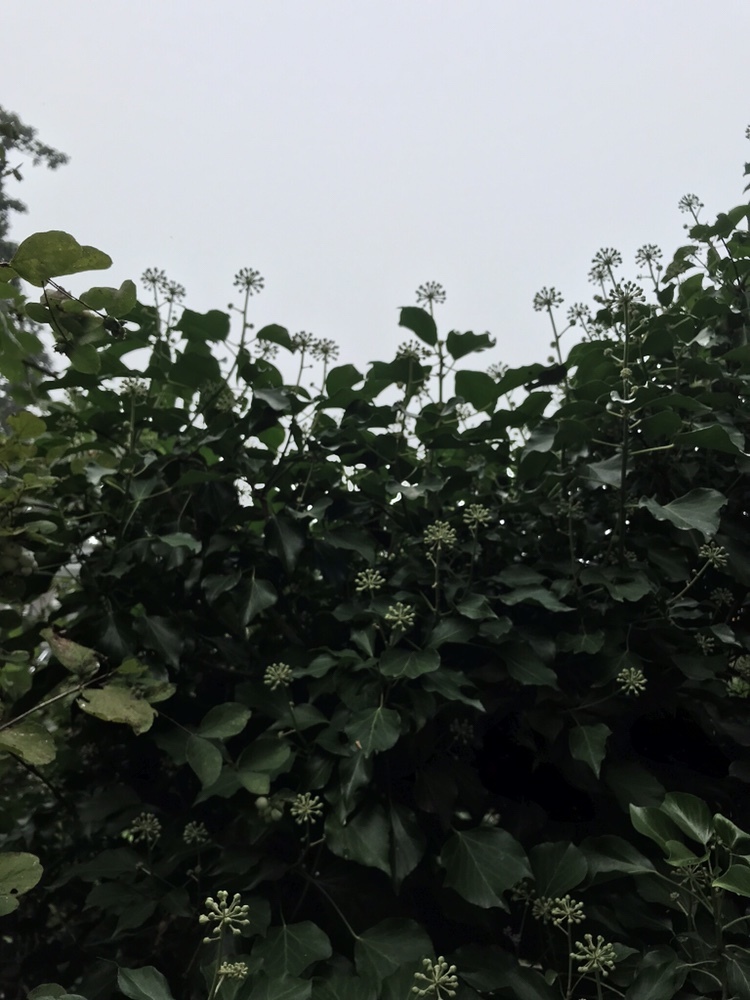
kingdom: Plantae
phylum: Tracheophyta
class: Magnoliopsida
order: Apiales
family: Araliaceae
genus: Hedera
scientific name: Hedera canariensis
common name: Madeira ivy
